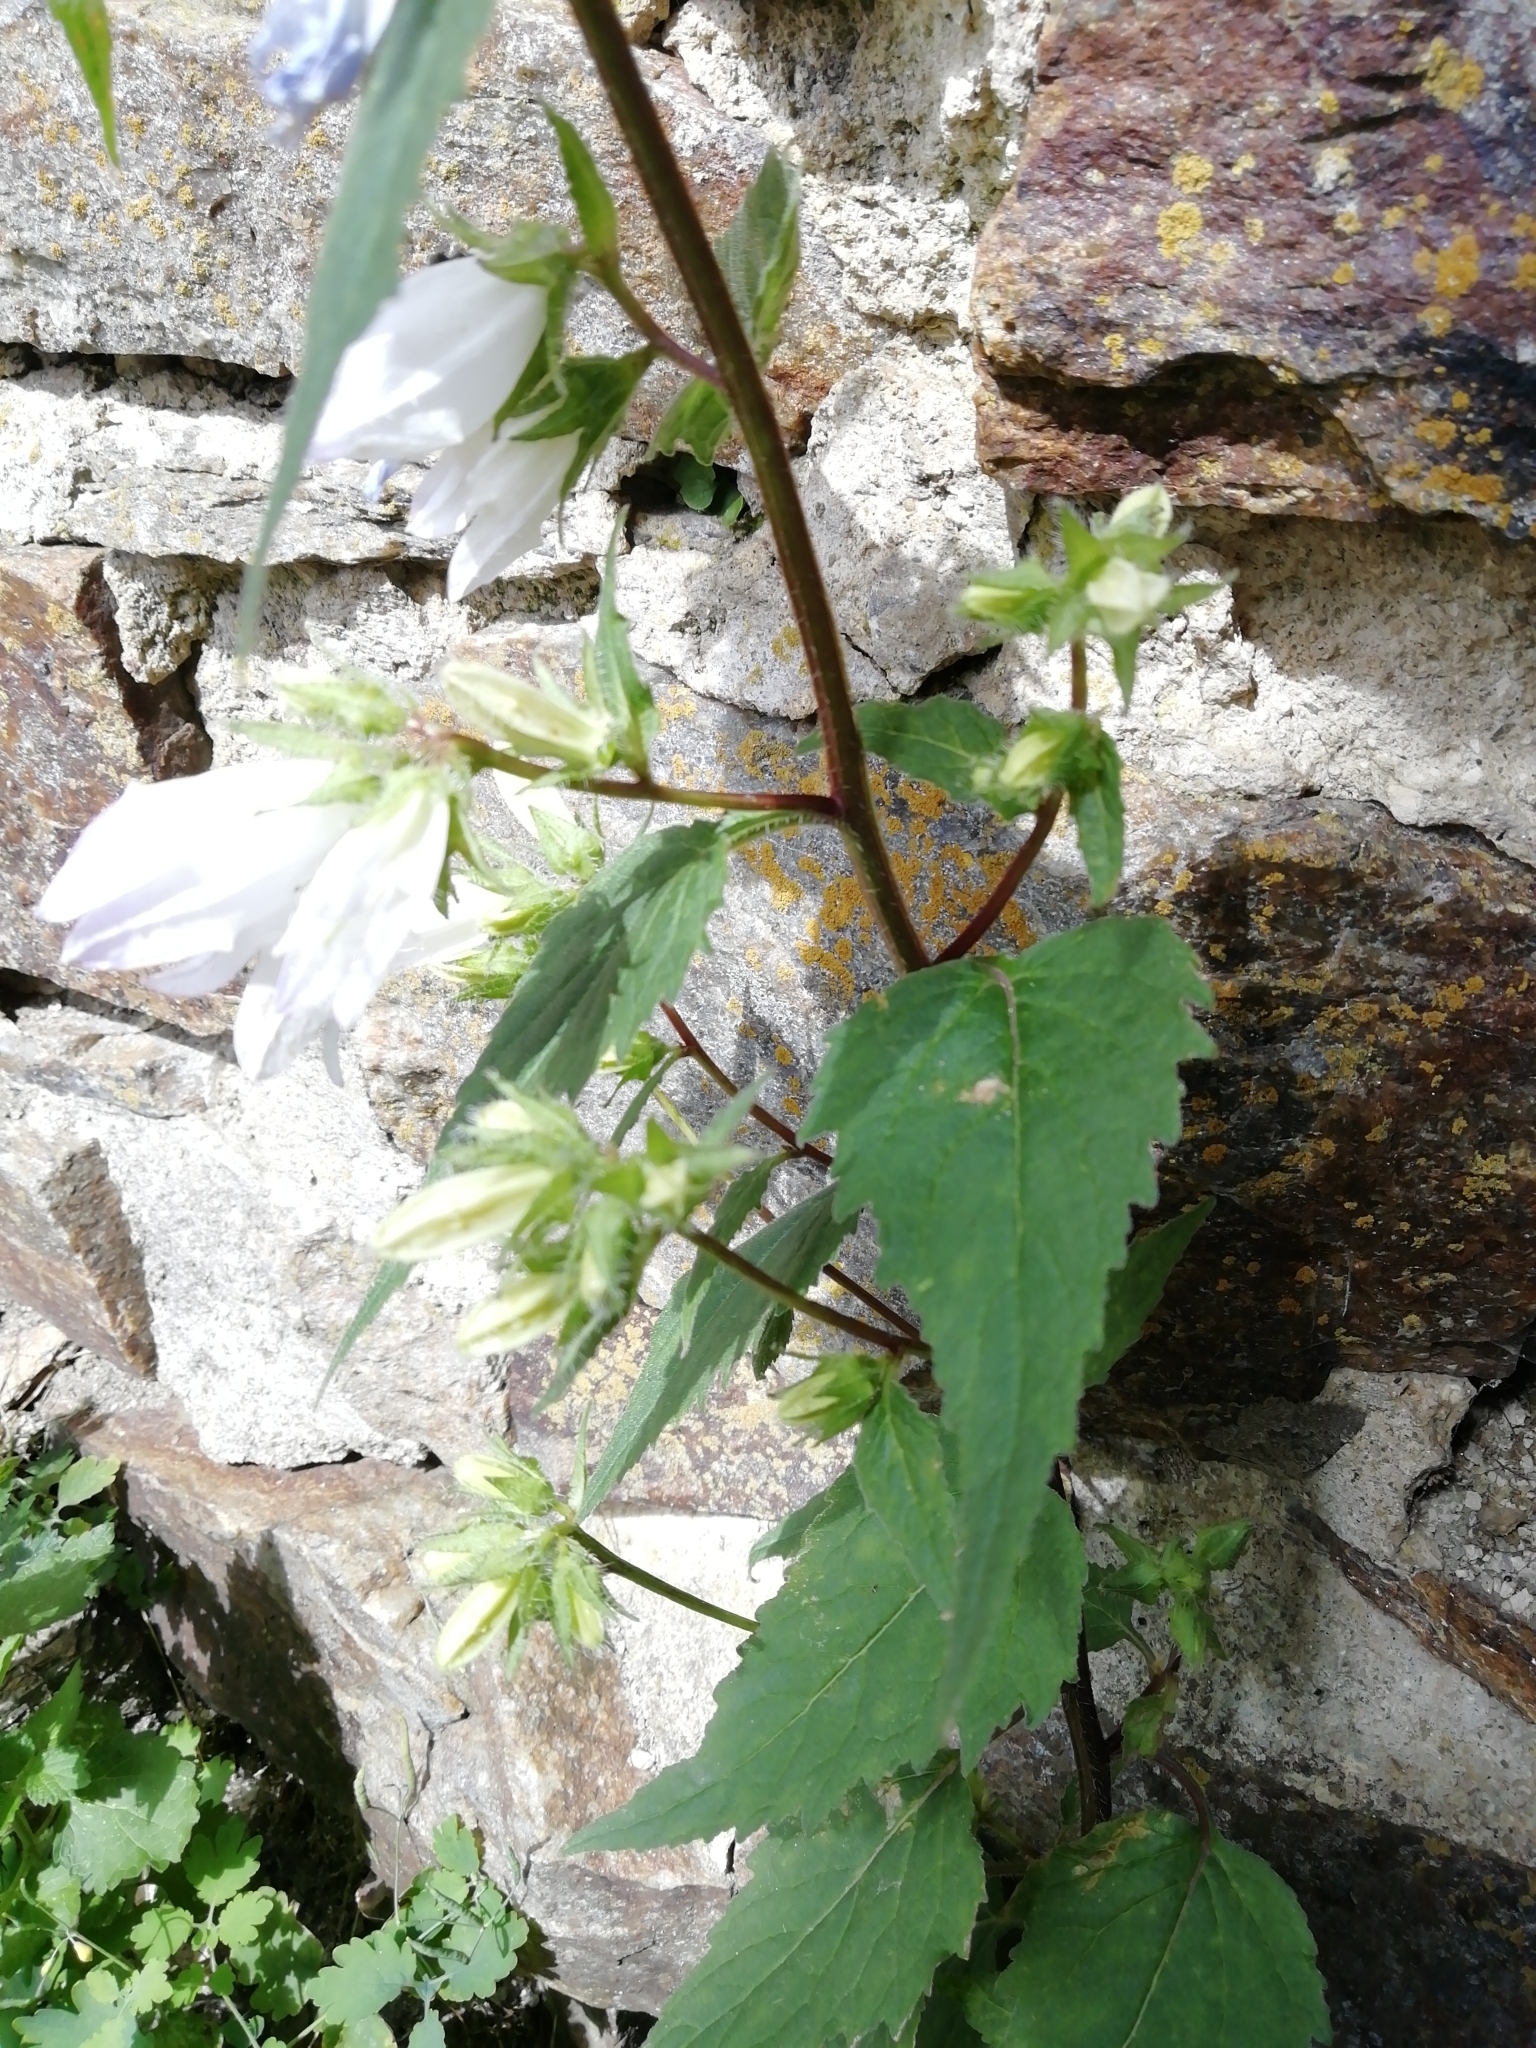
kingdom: Plantae
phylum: Tracheophyta
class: Magnoliopsida
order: Asterales
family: Campanulaceae
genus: Campanula
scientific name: Campanula trachelium
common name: Nettle-leaved bellflower
